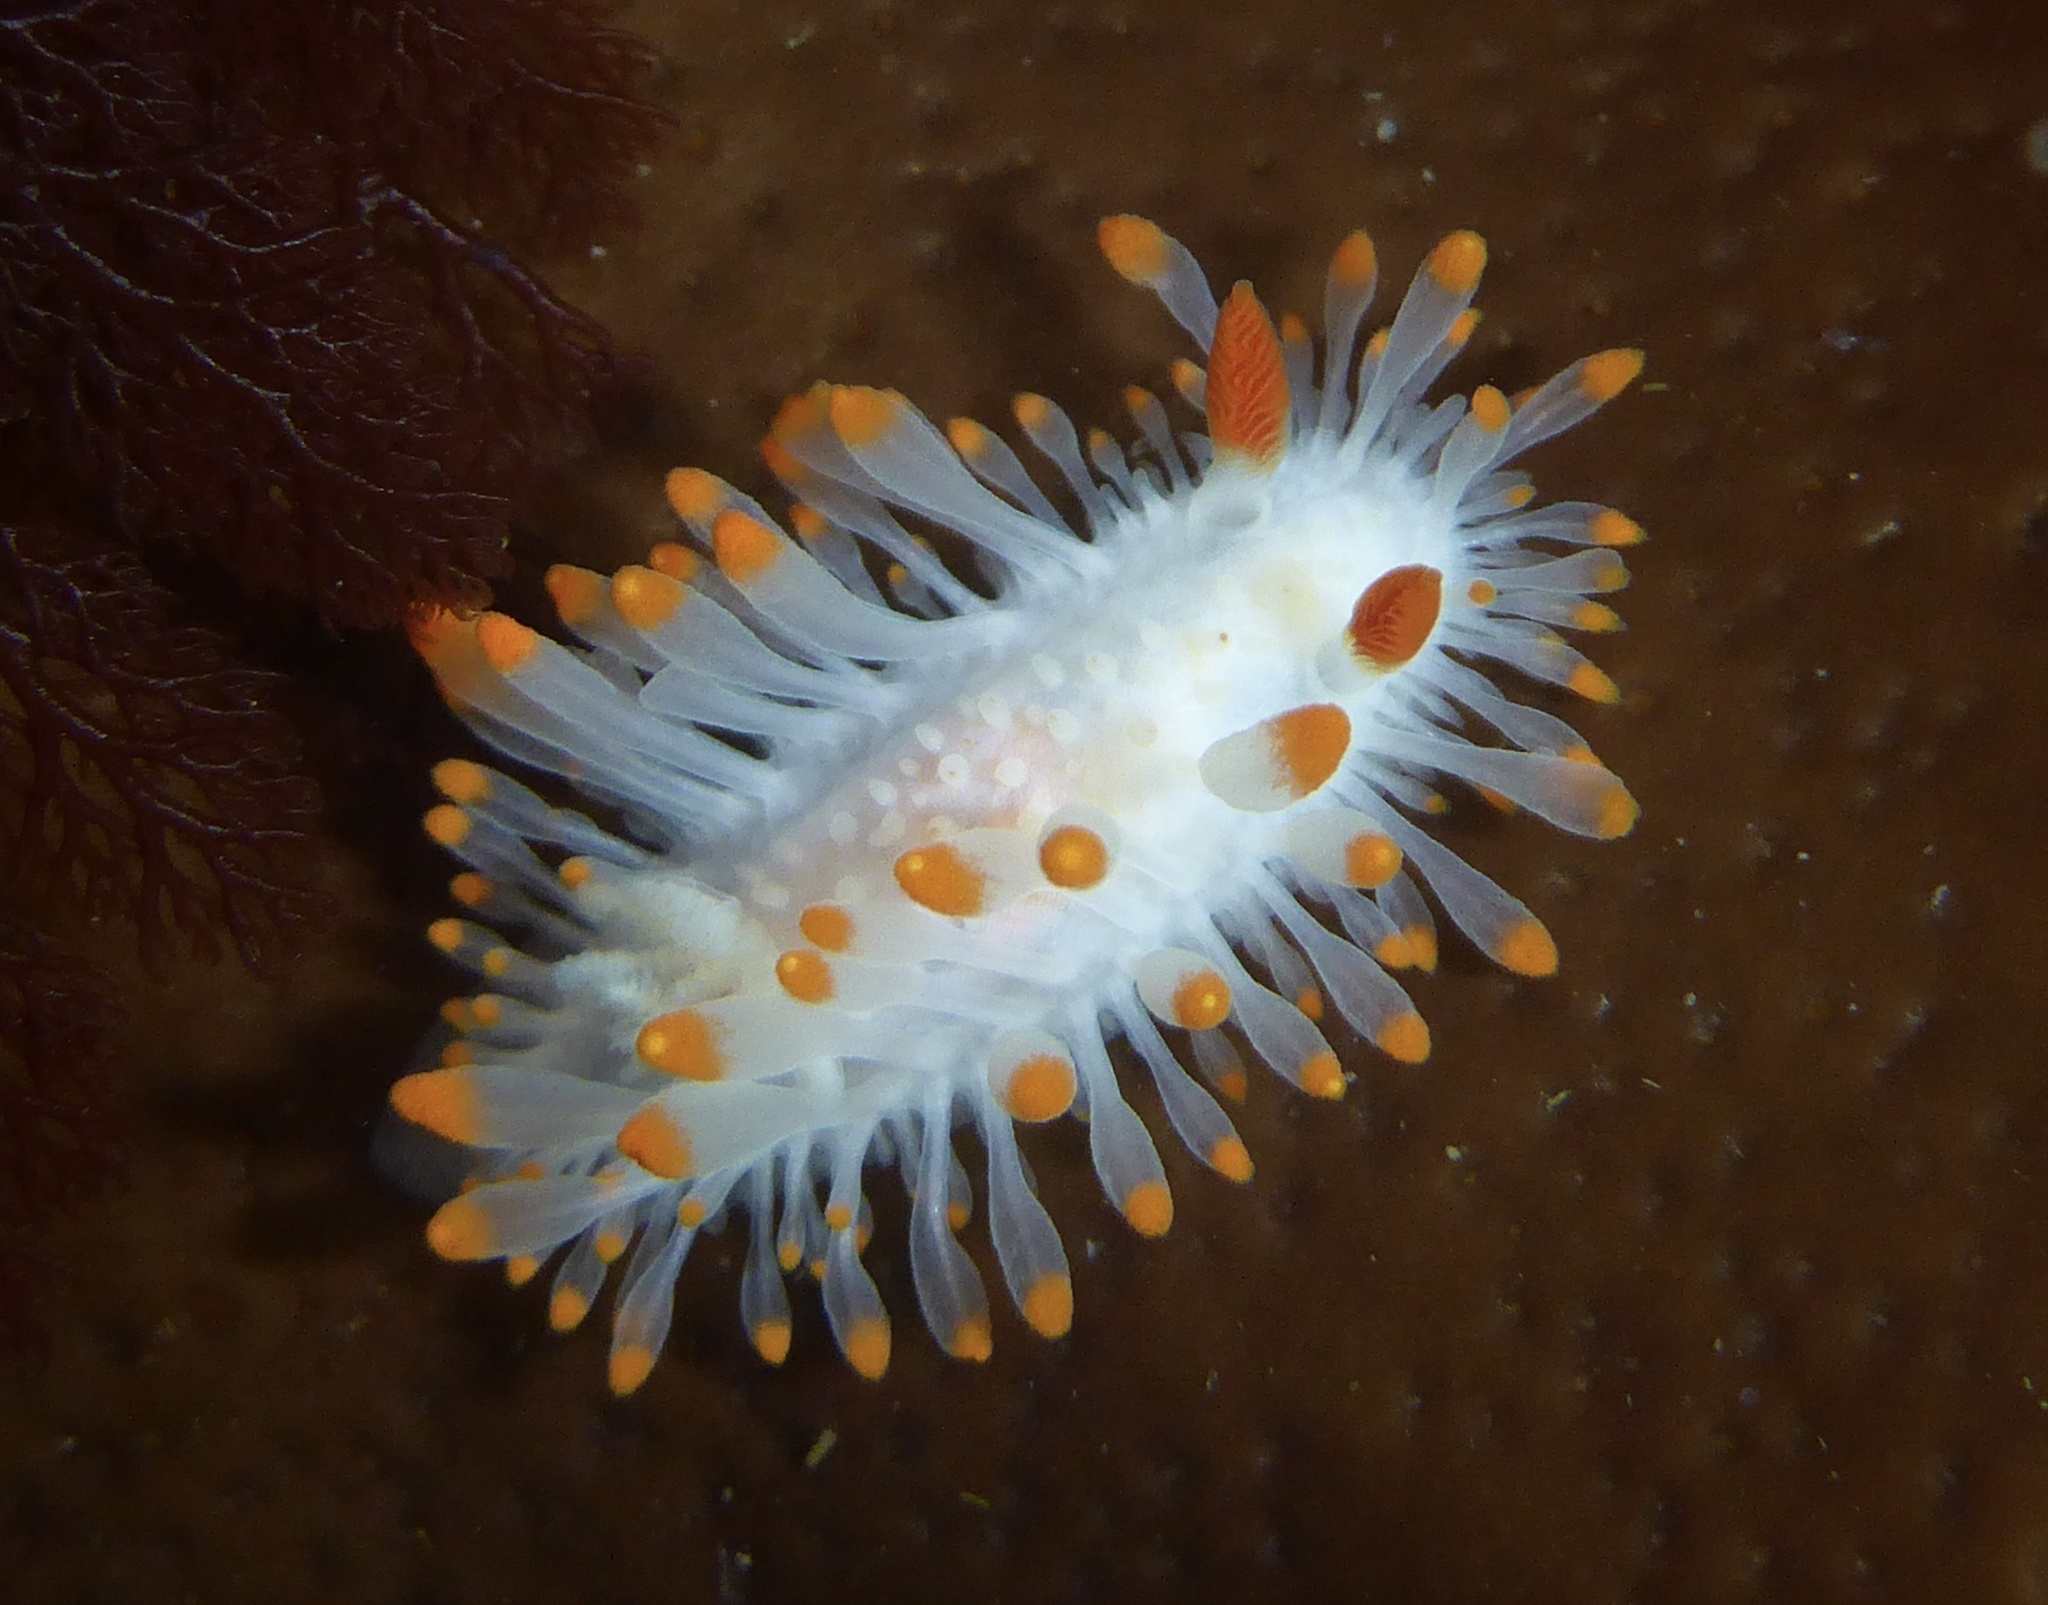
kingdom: Animalia
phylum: Mollusca
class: Gastropoda
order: Nudibranchia
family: Polyceridae
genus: Limacia
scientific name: Limacia cockerelli
